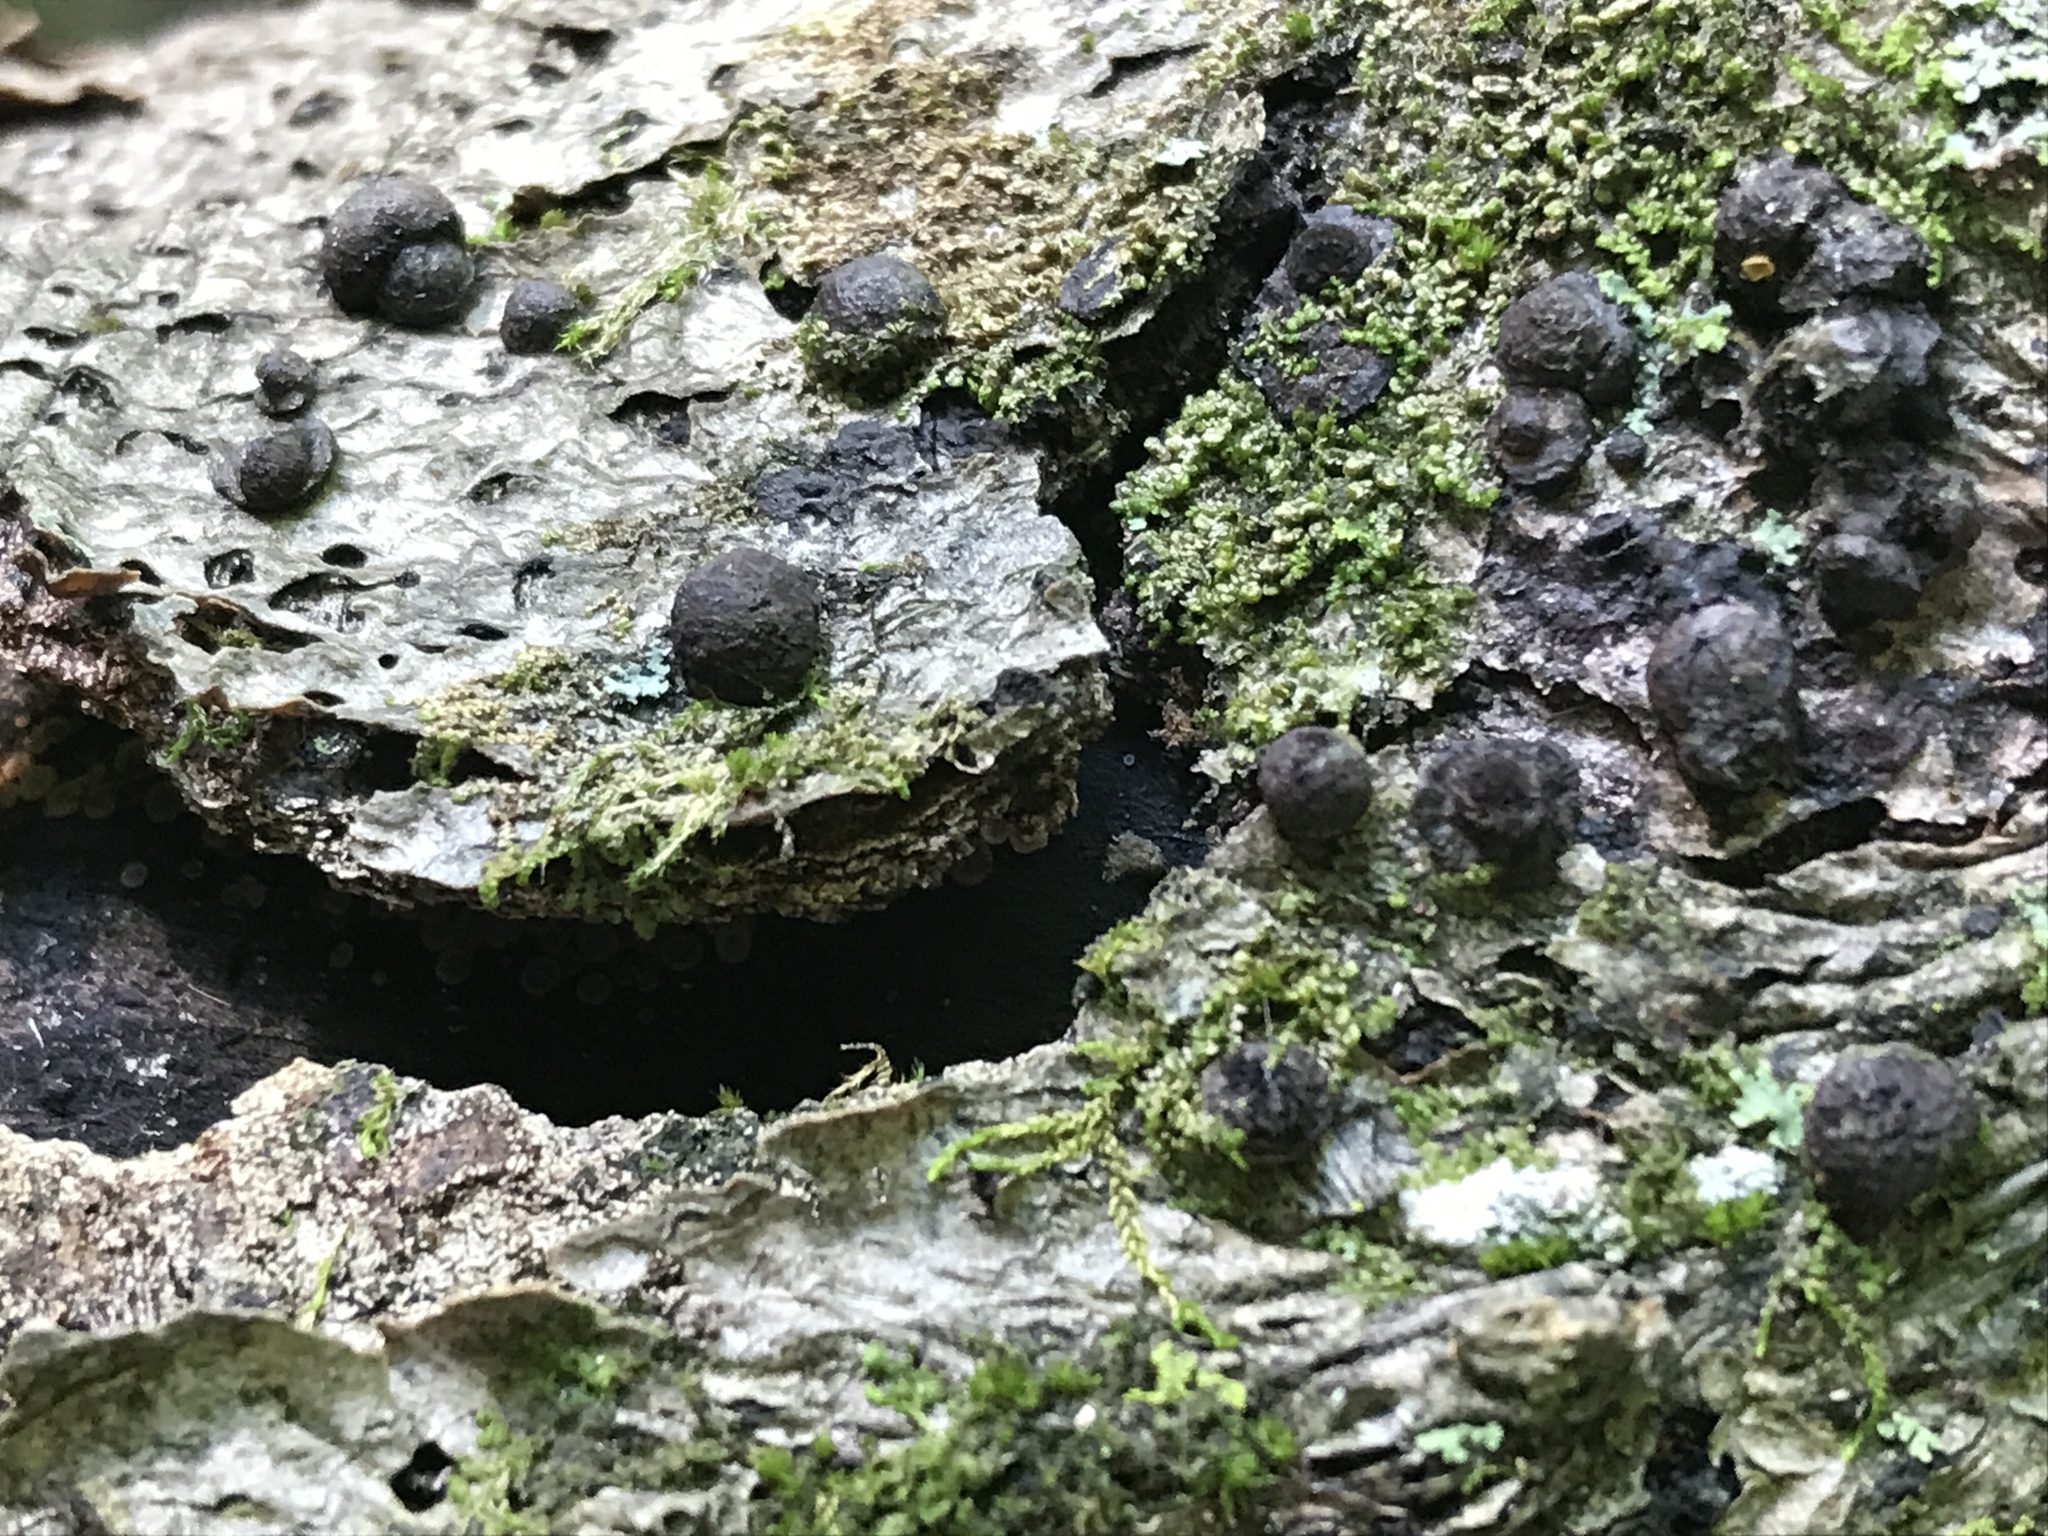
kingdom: Fungi
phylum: Ascomycota
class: Sordariomycetes
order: Xylariales
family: Hypoxylaceae
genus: Jackrogersella
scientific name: Jackrogersella cohaerens
